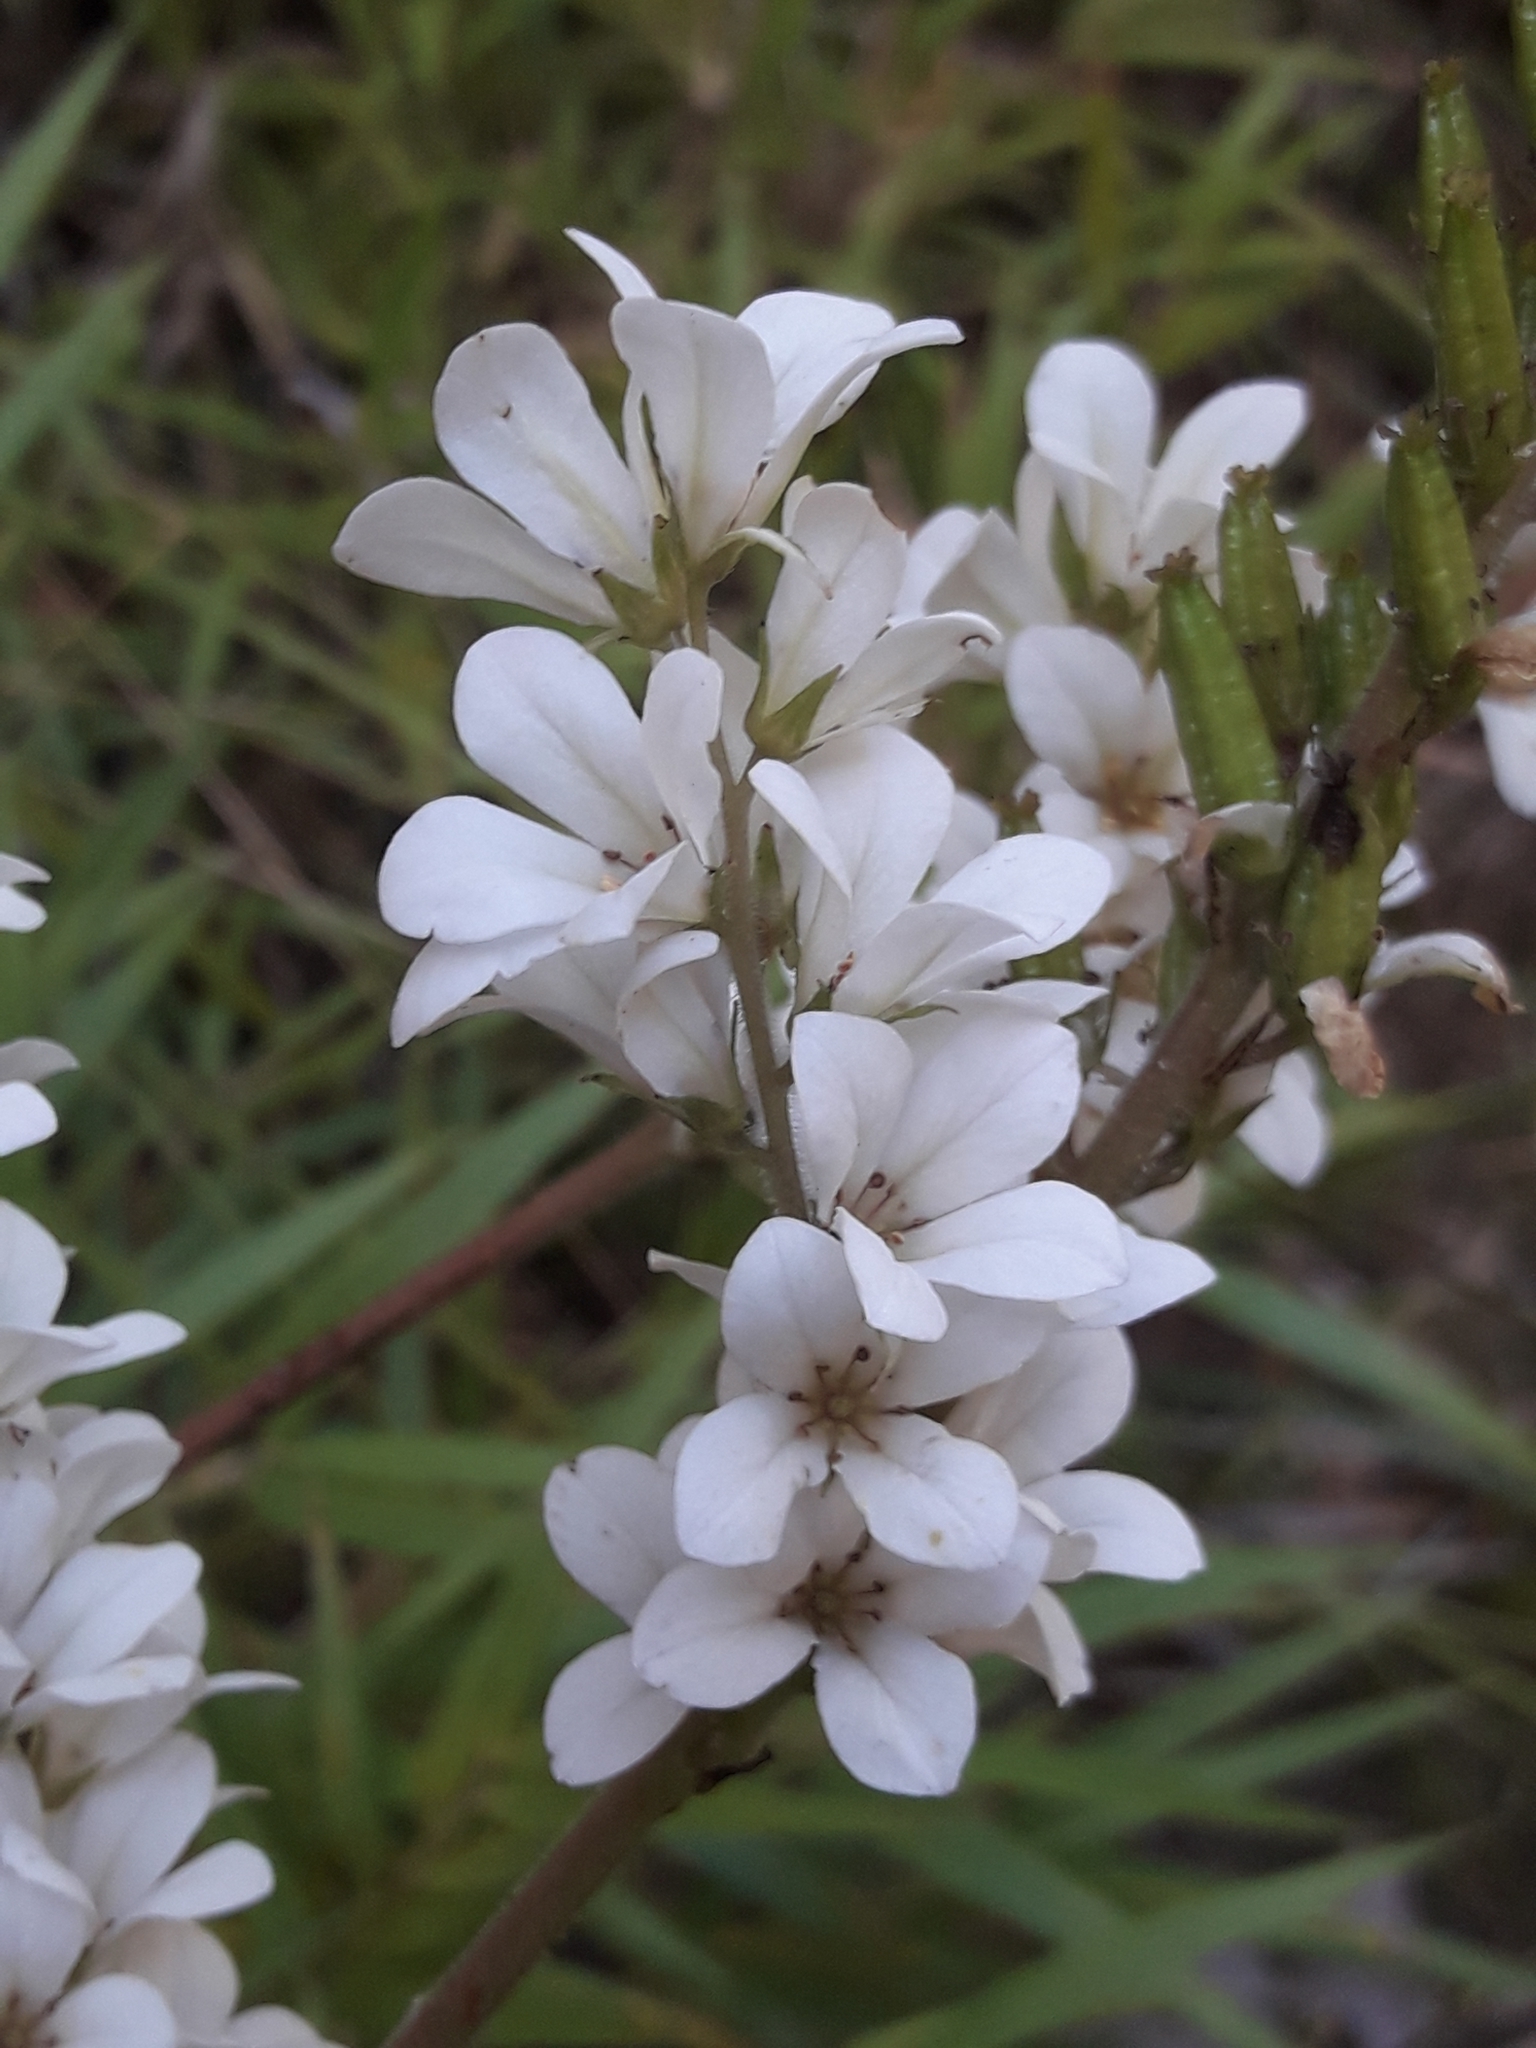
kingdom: Plantae
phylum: Tracheophyta
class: Magnoliopsida
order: Geraniales
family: Francoaceae
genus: Francoa
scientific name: Francoa appendiculata
